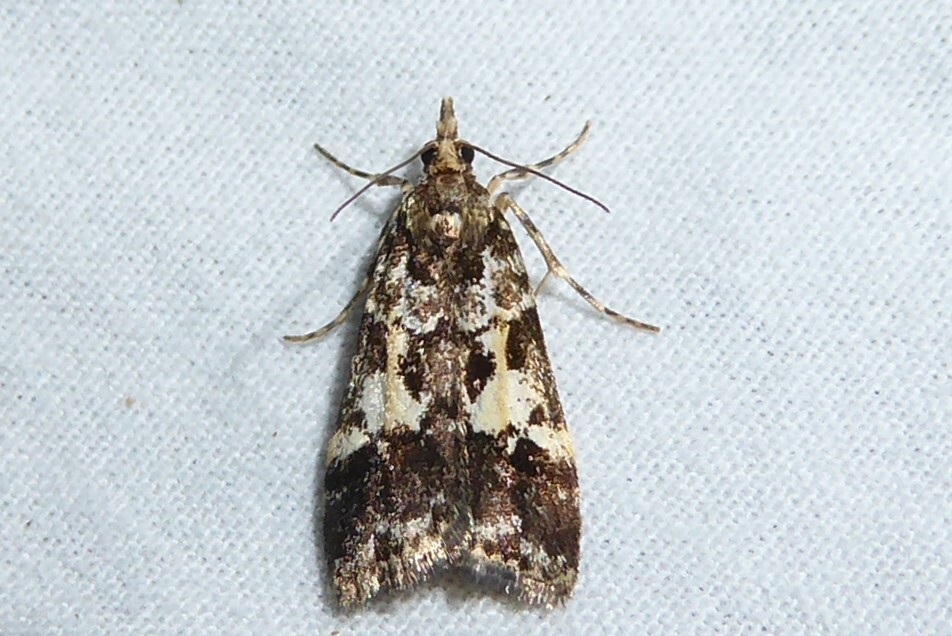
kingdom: Animalia
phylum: Arthropoda
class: Insecta
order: Lepidoptera
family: Crambidae
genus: Eudonia
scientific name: Eudonia characta
